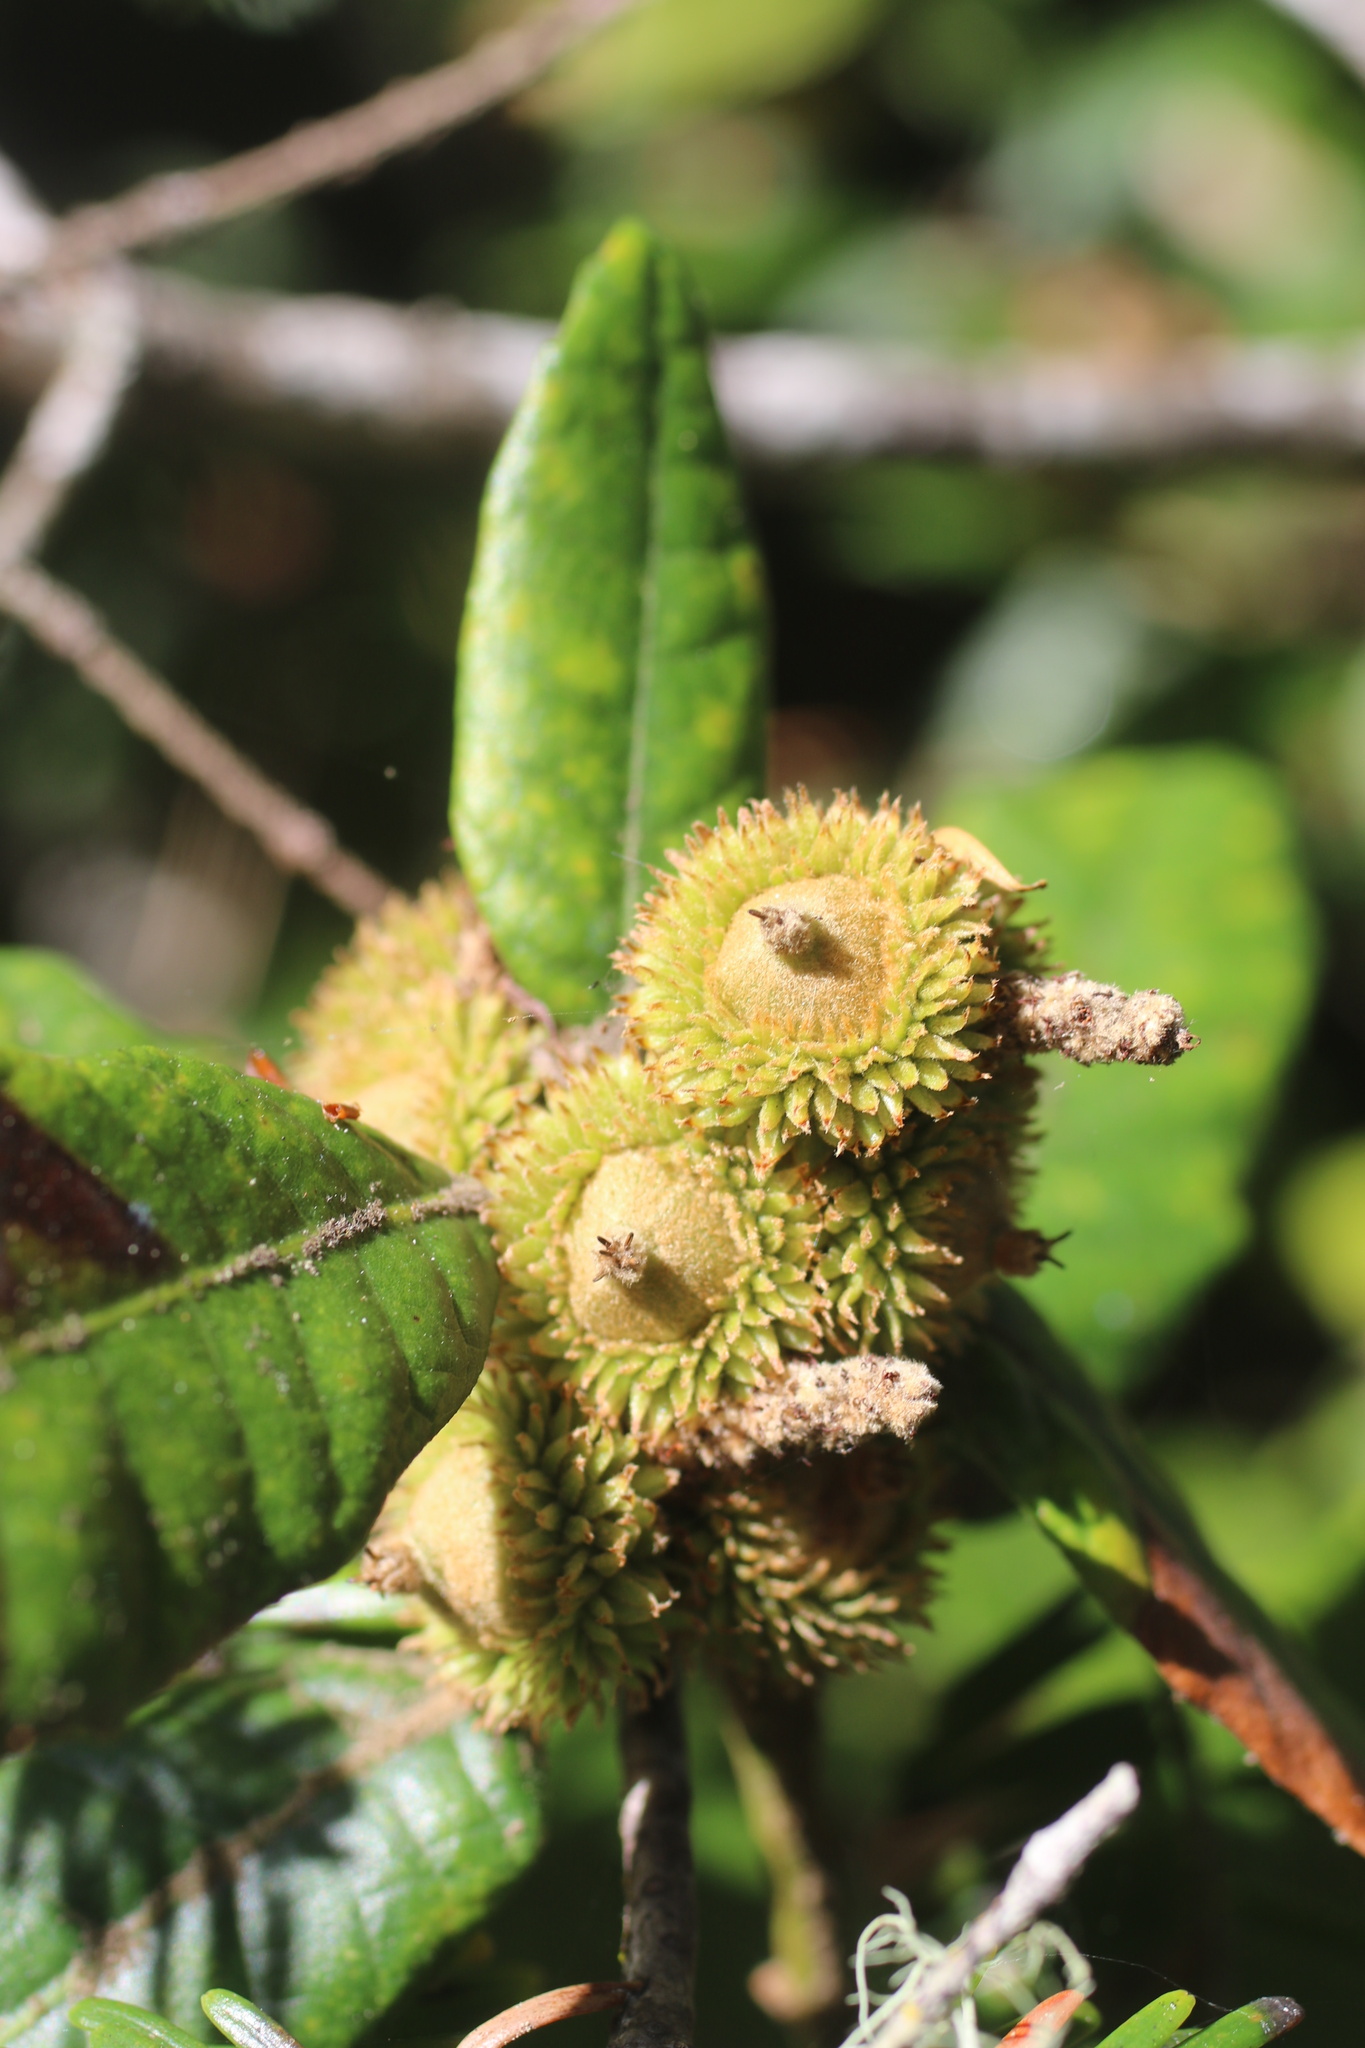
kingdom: Plantae
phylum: Tracheophyta
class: Magnoliopsida
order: Fagales
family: Fagaceae
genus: Notholithocarpus
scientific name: Notholithocarpus densiflorus
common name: Tan bark oak
